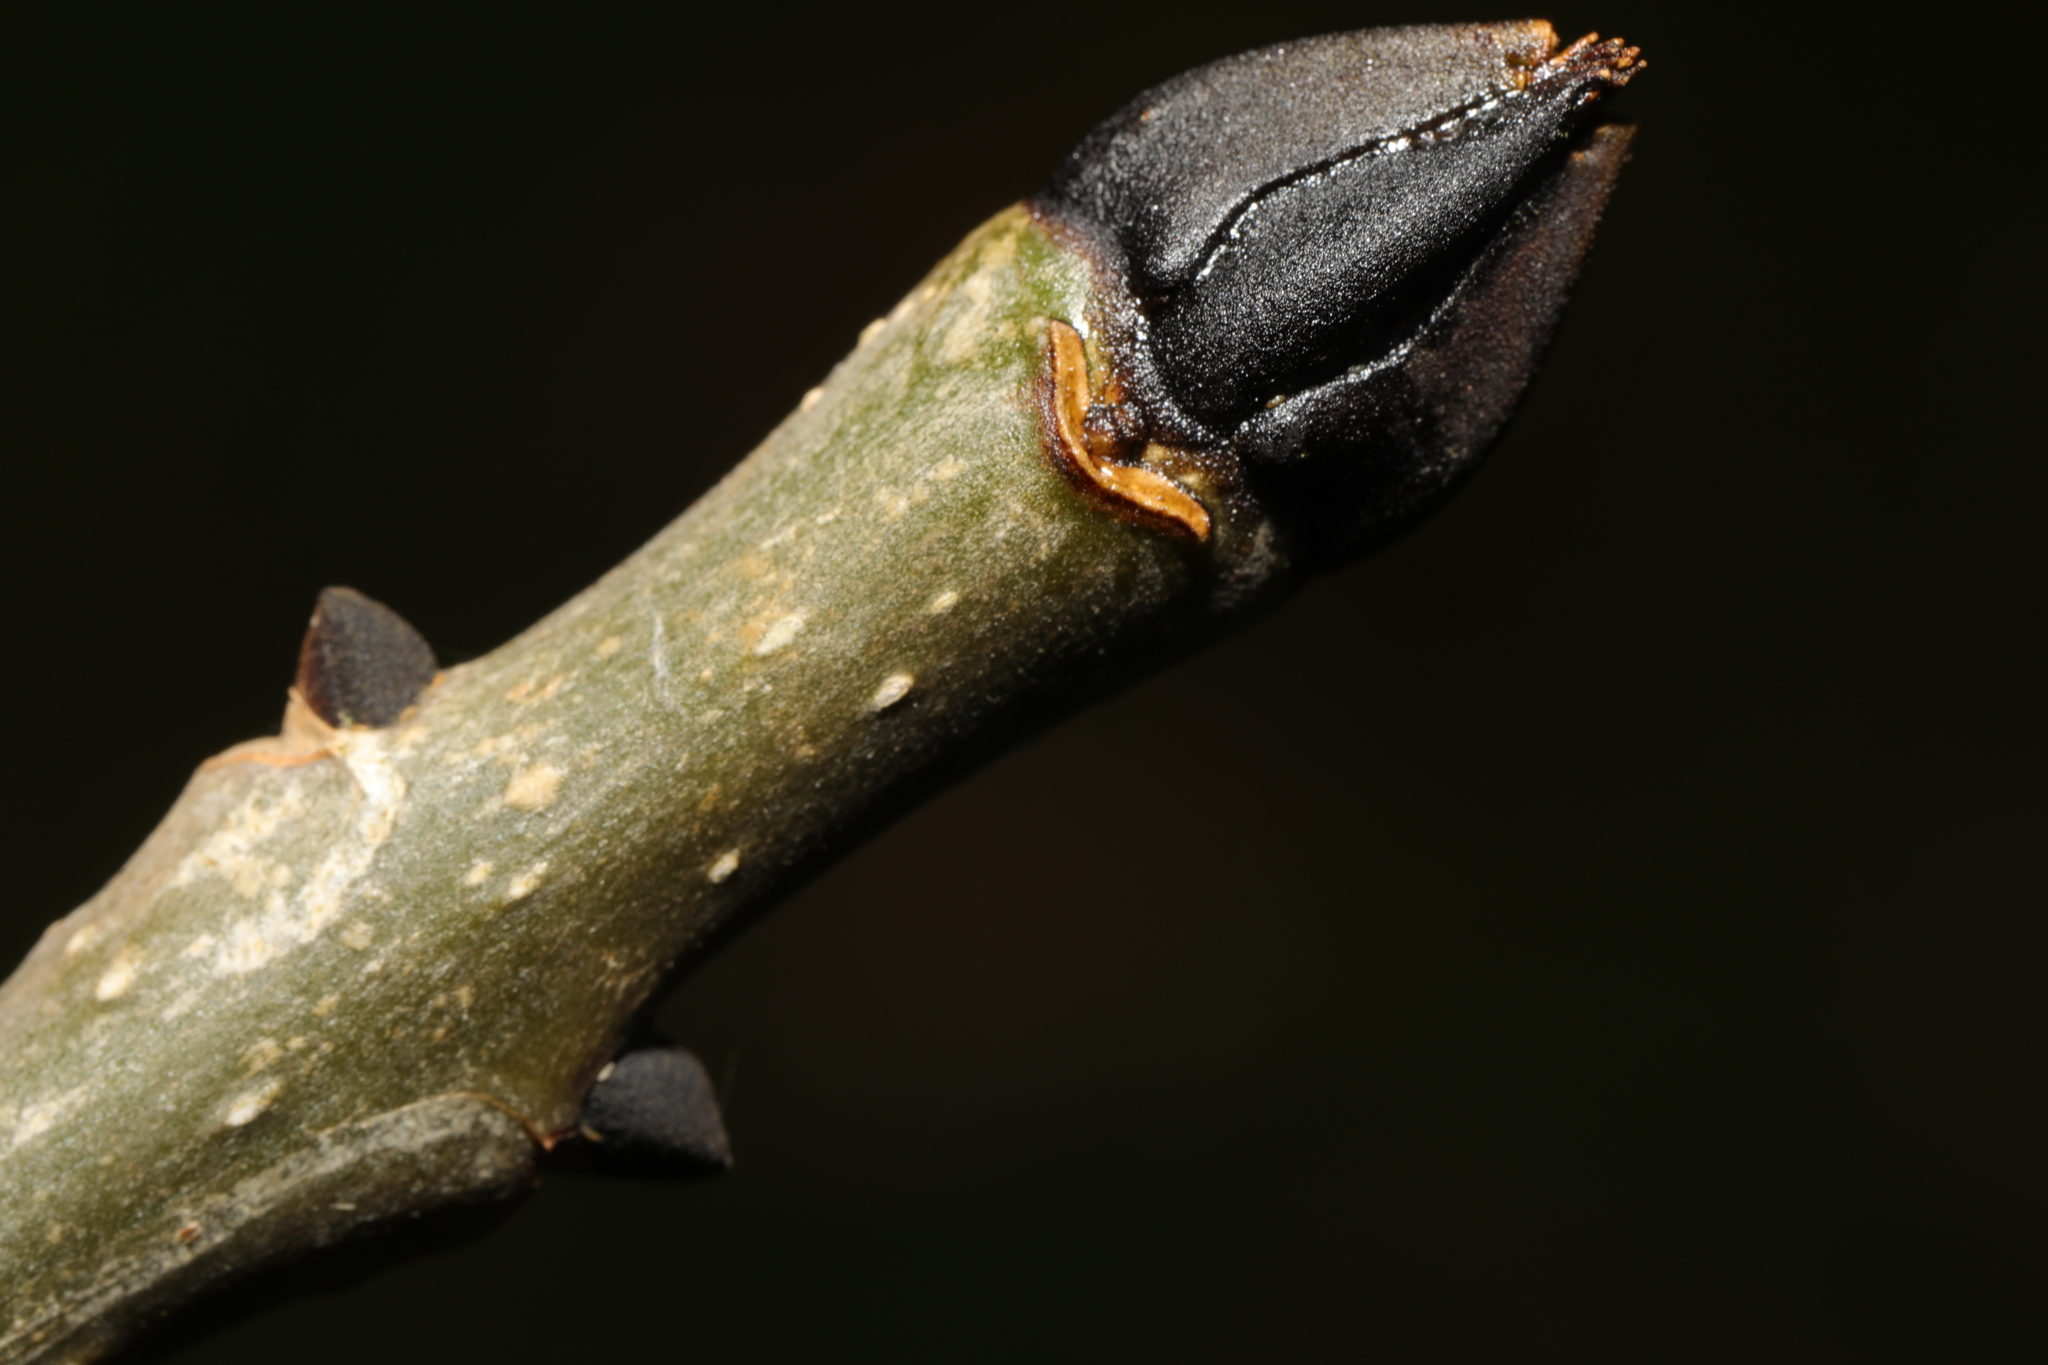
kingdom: Plantae
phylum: Tracheophyta
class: Magnoliopsida
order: Lamiales
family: Oleaceae
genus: Fraxinus
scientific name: Fraxinus excelsior
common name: European ash
